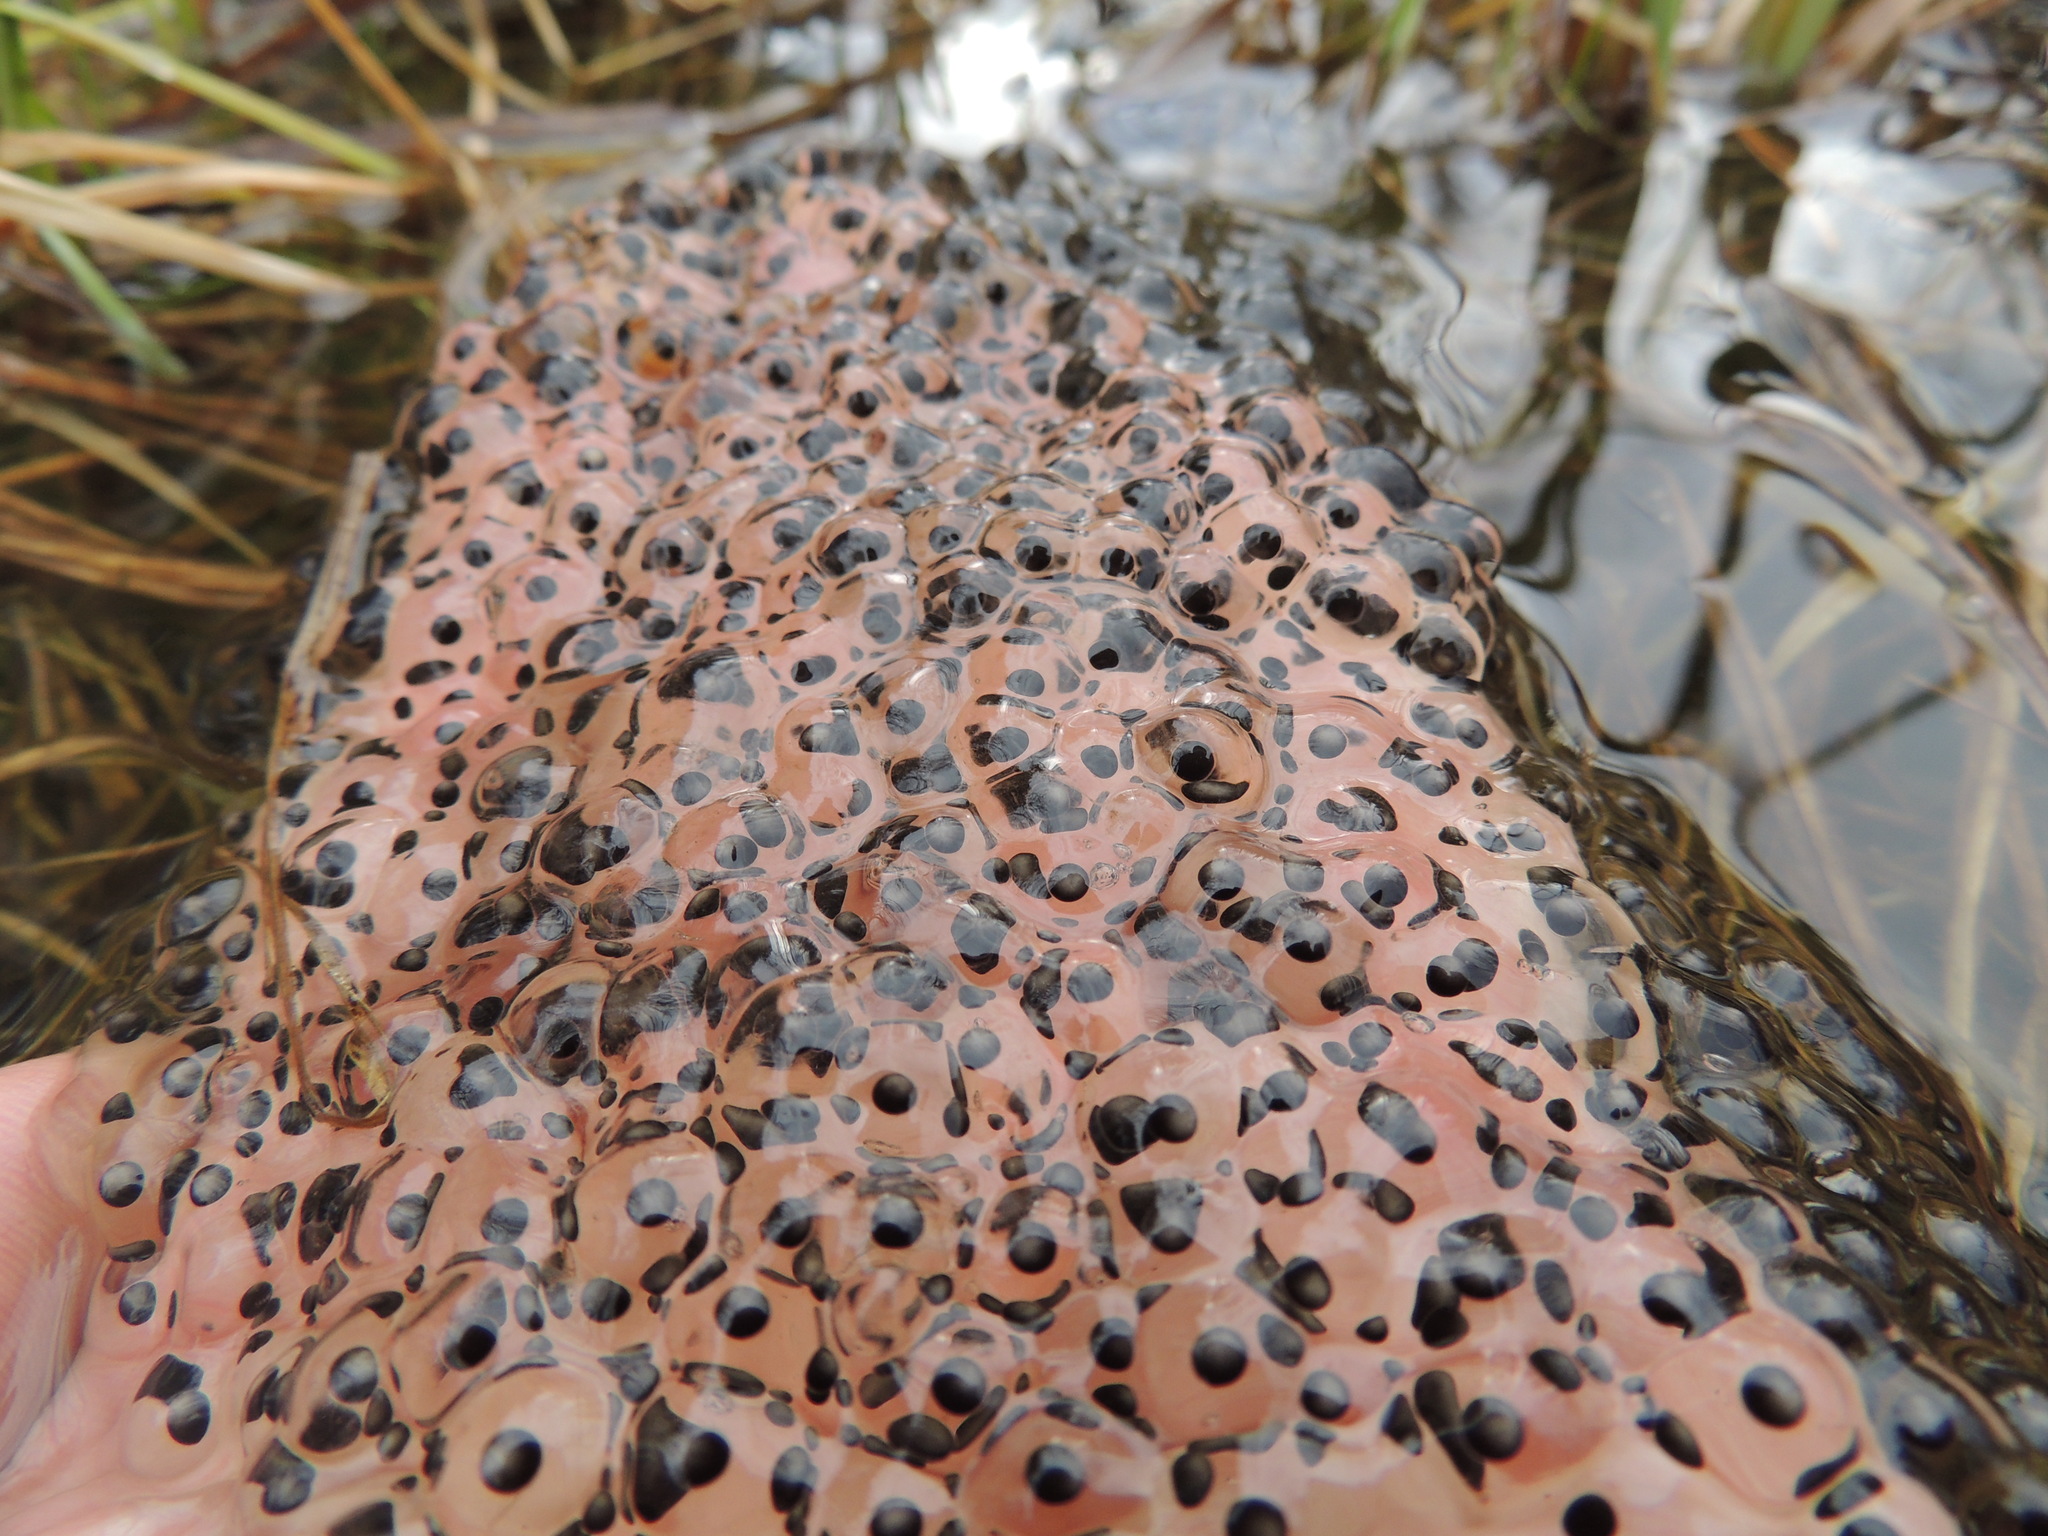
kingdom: Animalia
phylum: Chordata
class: Amphibia
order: Anura
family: Ranidae
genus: Rana
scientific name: Rana temporaria
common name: Common frog
